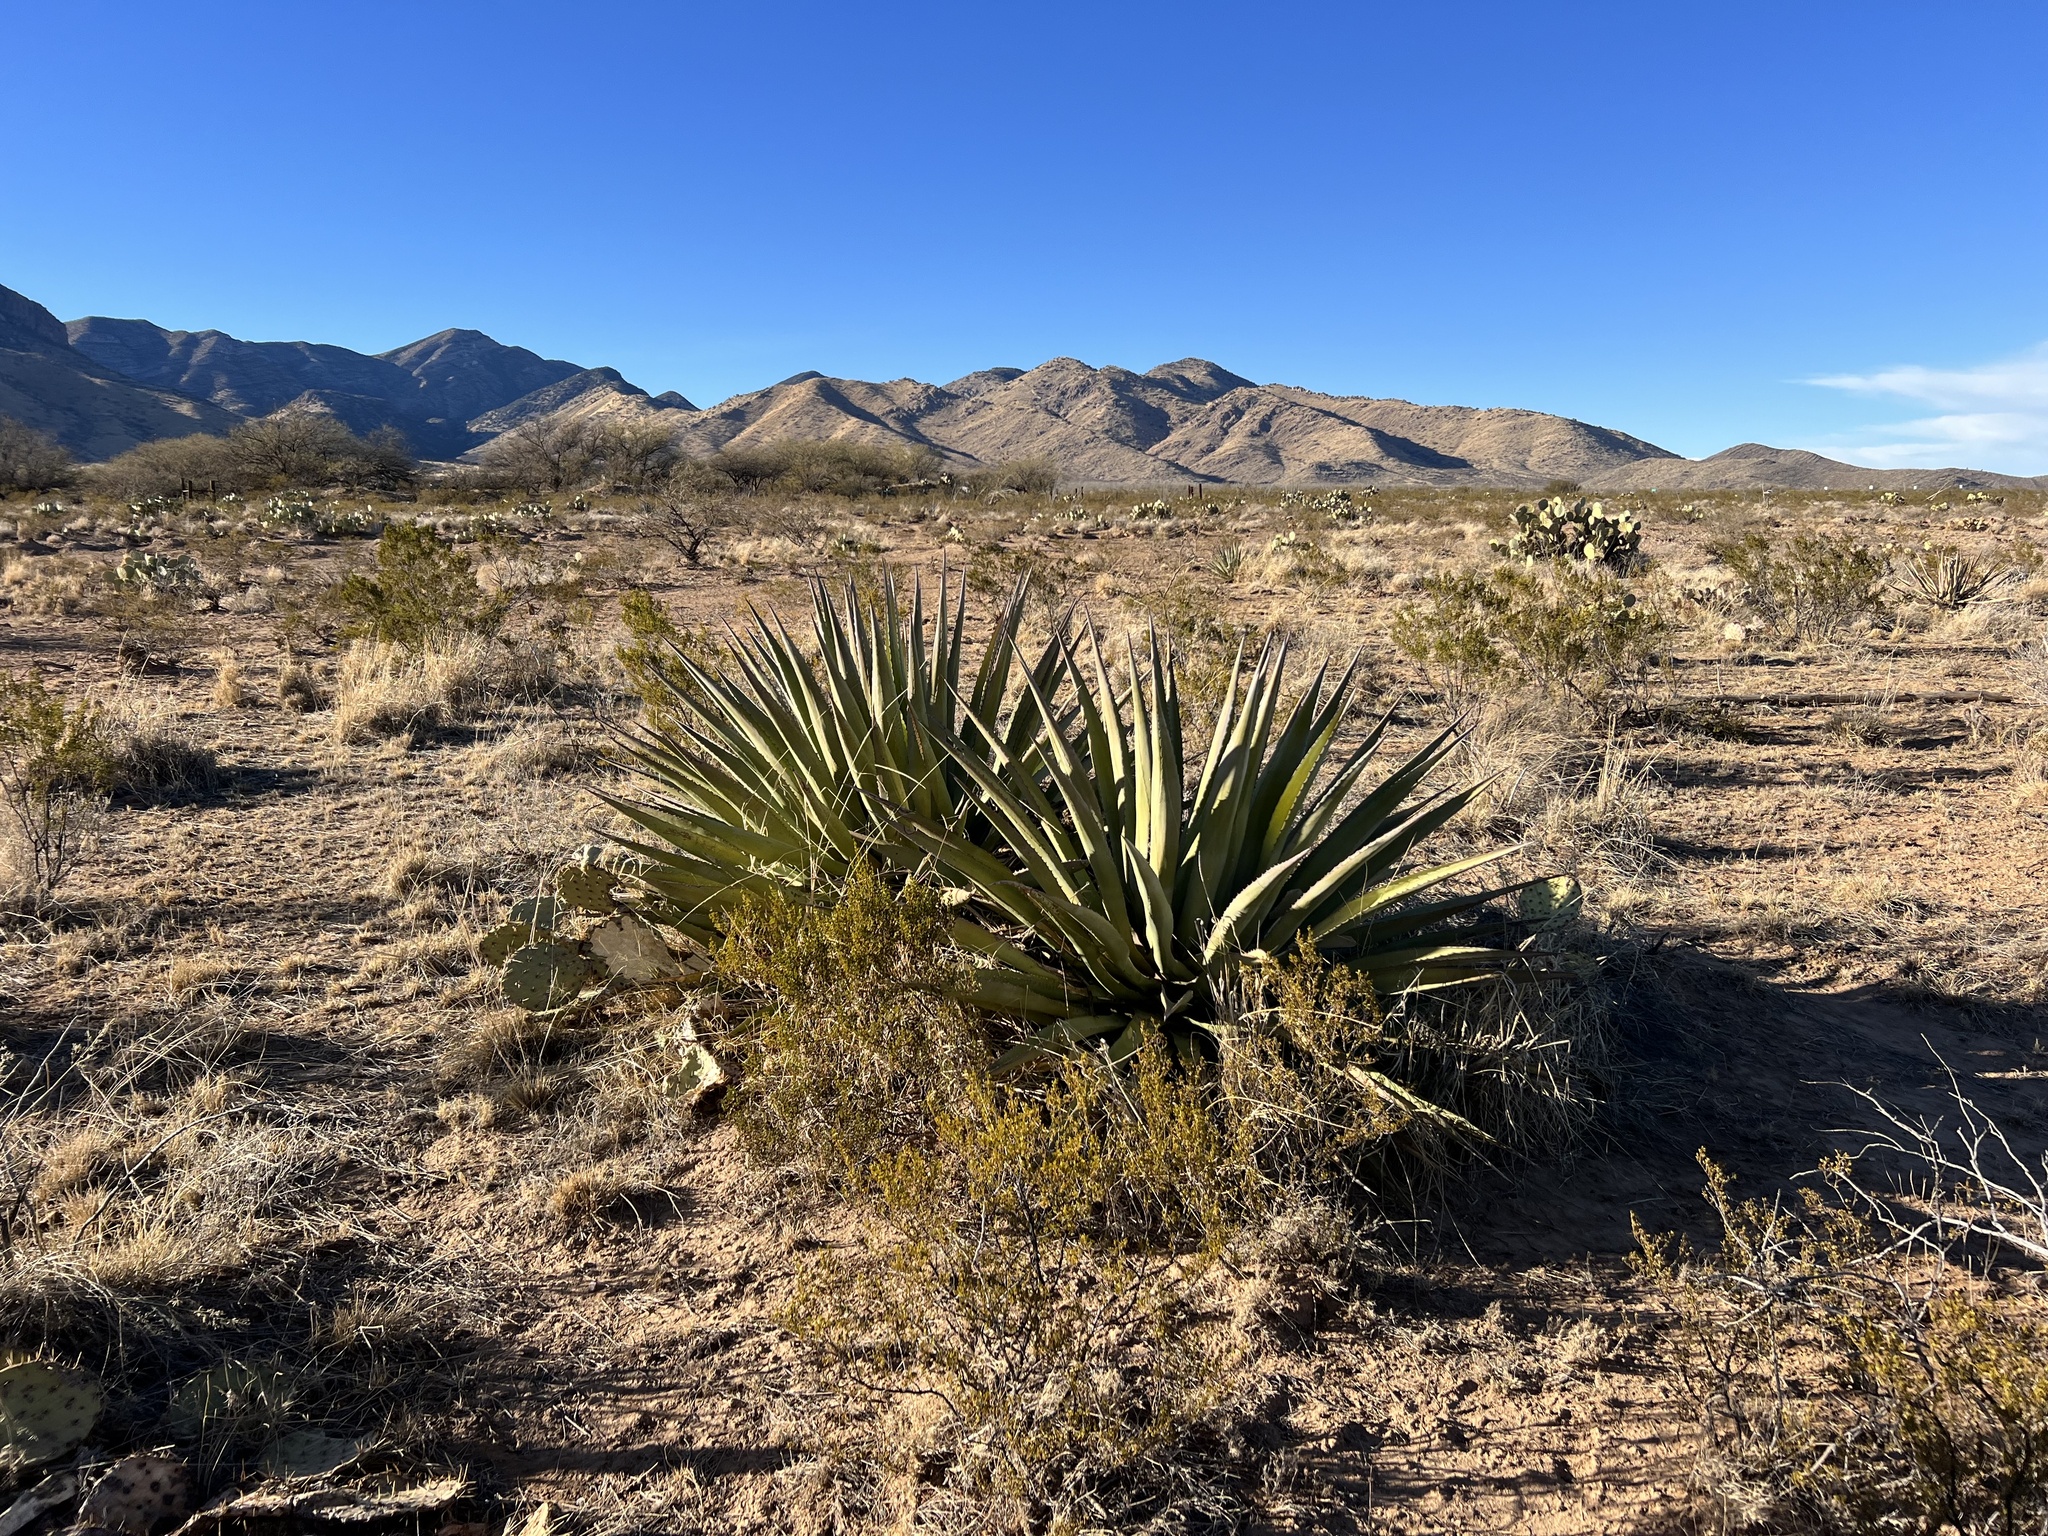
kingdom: Plantae
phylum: Tracheophyta
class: Liliopsida
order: Asparagales
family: Asparagaceae
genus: Agave
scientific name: Agave palmeri
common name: Palmer agave
